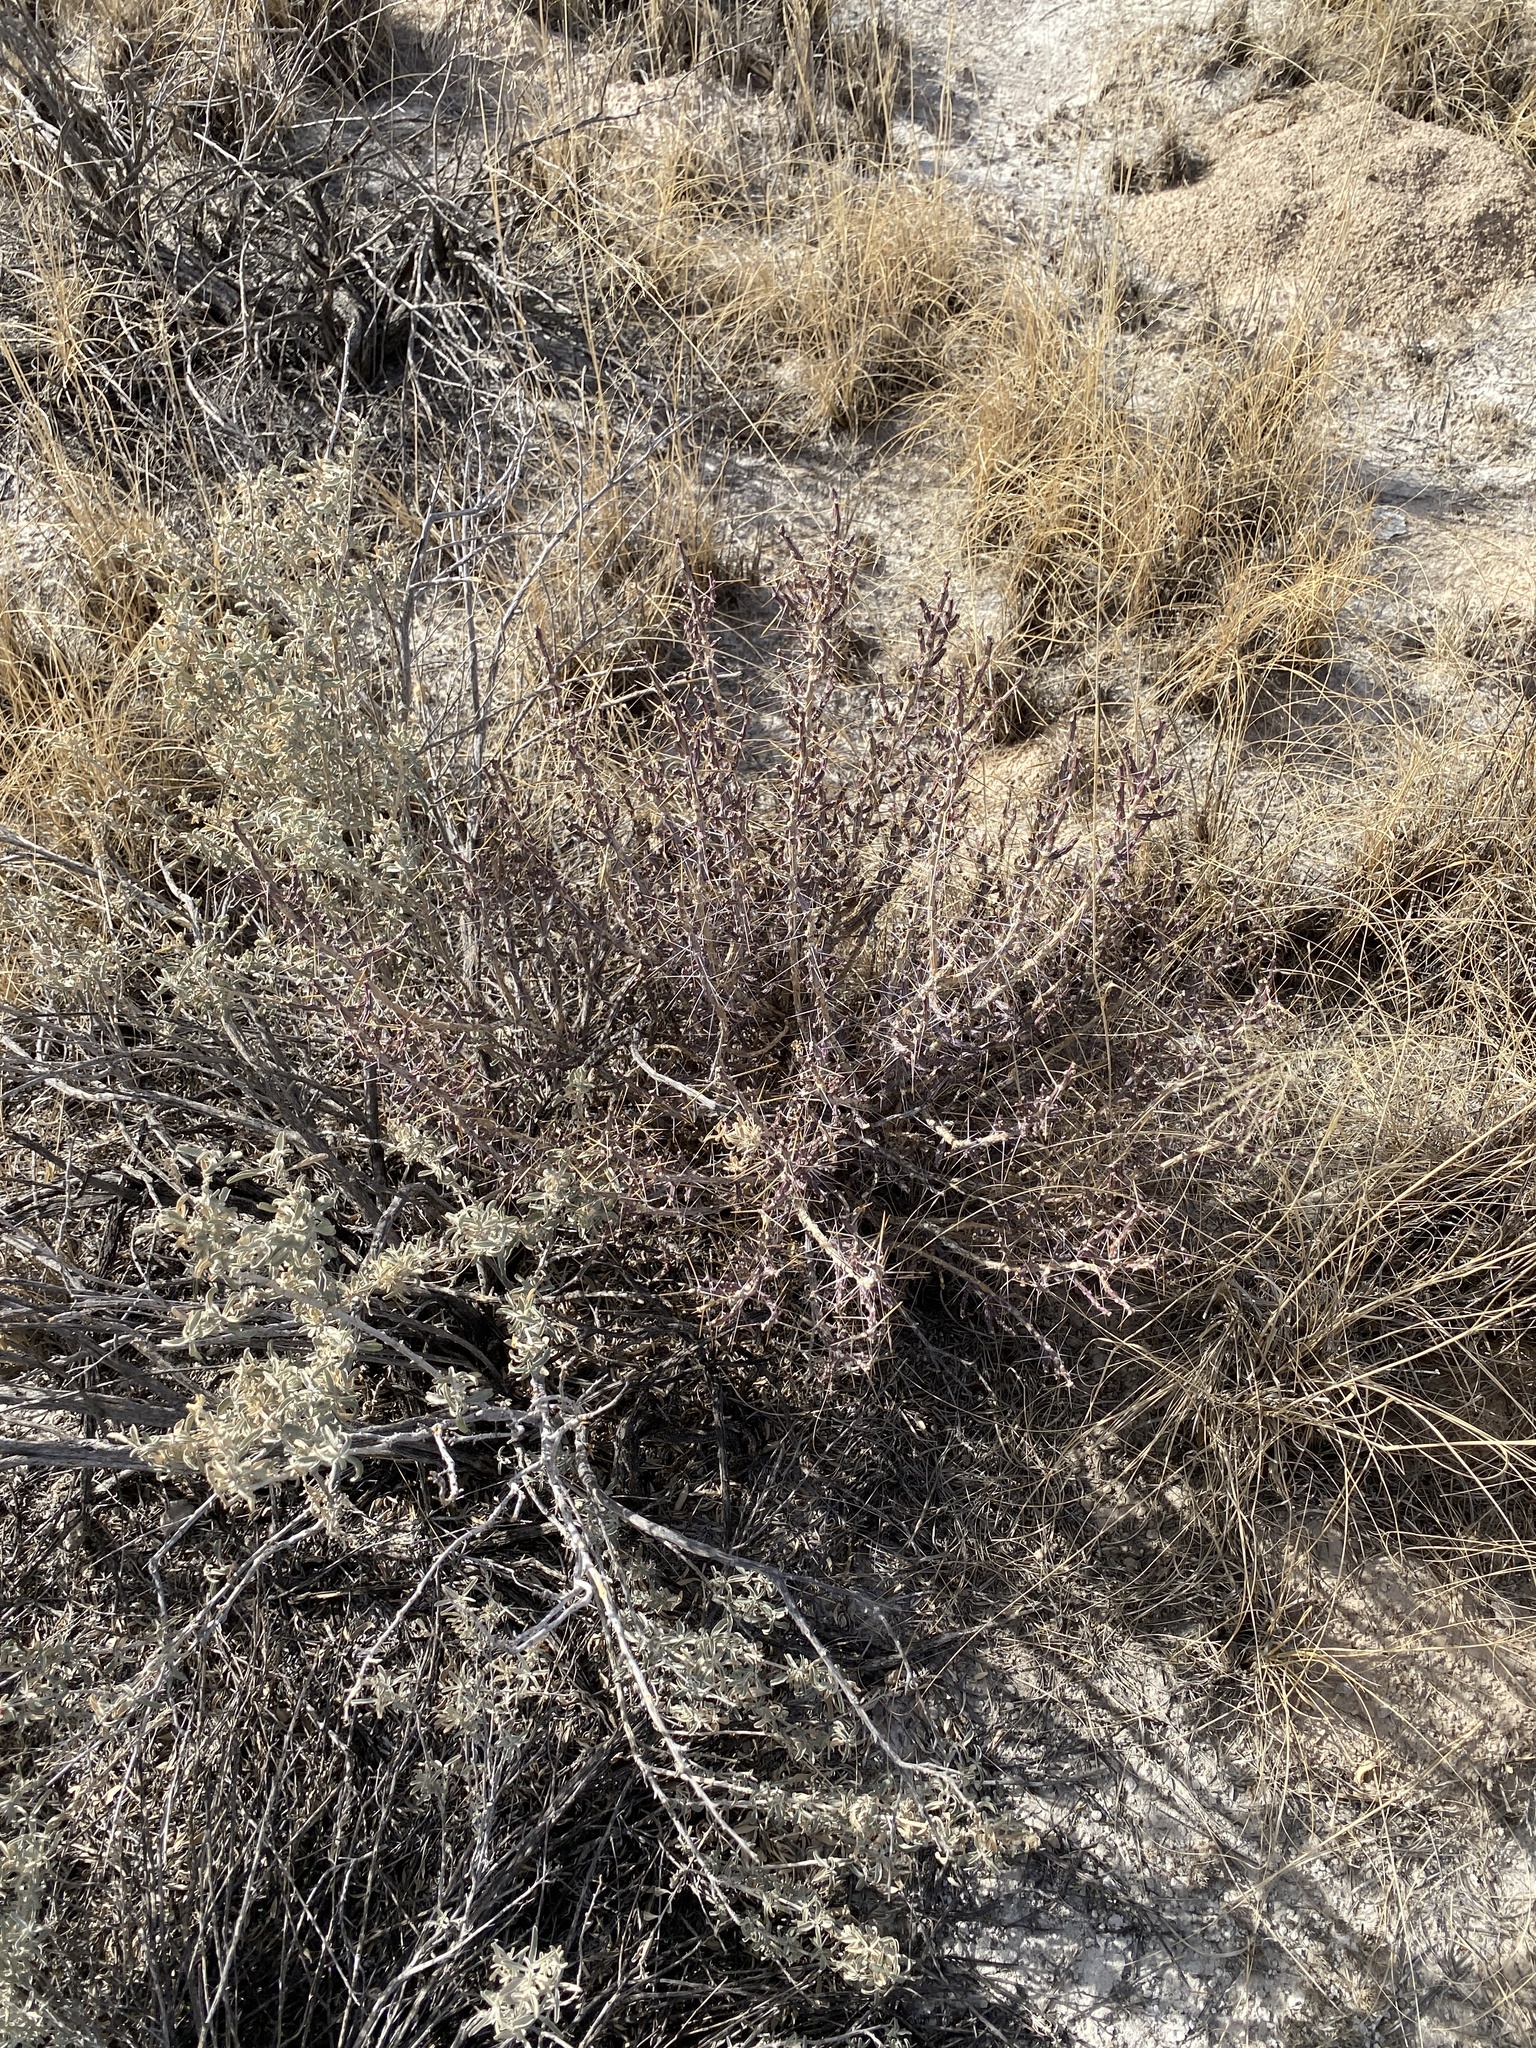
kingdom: Plantae
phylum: Tracheophyta
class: Magnoliopsida
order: Caryophyllales
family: Cactaceae
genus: Cylindropuntia
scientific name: Cylindropuntia leptocaulis
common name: Christmas cactus
